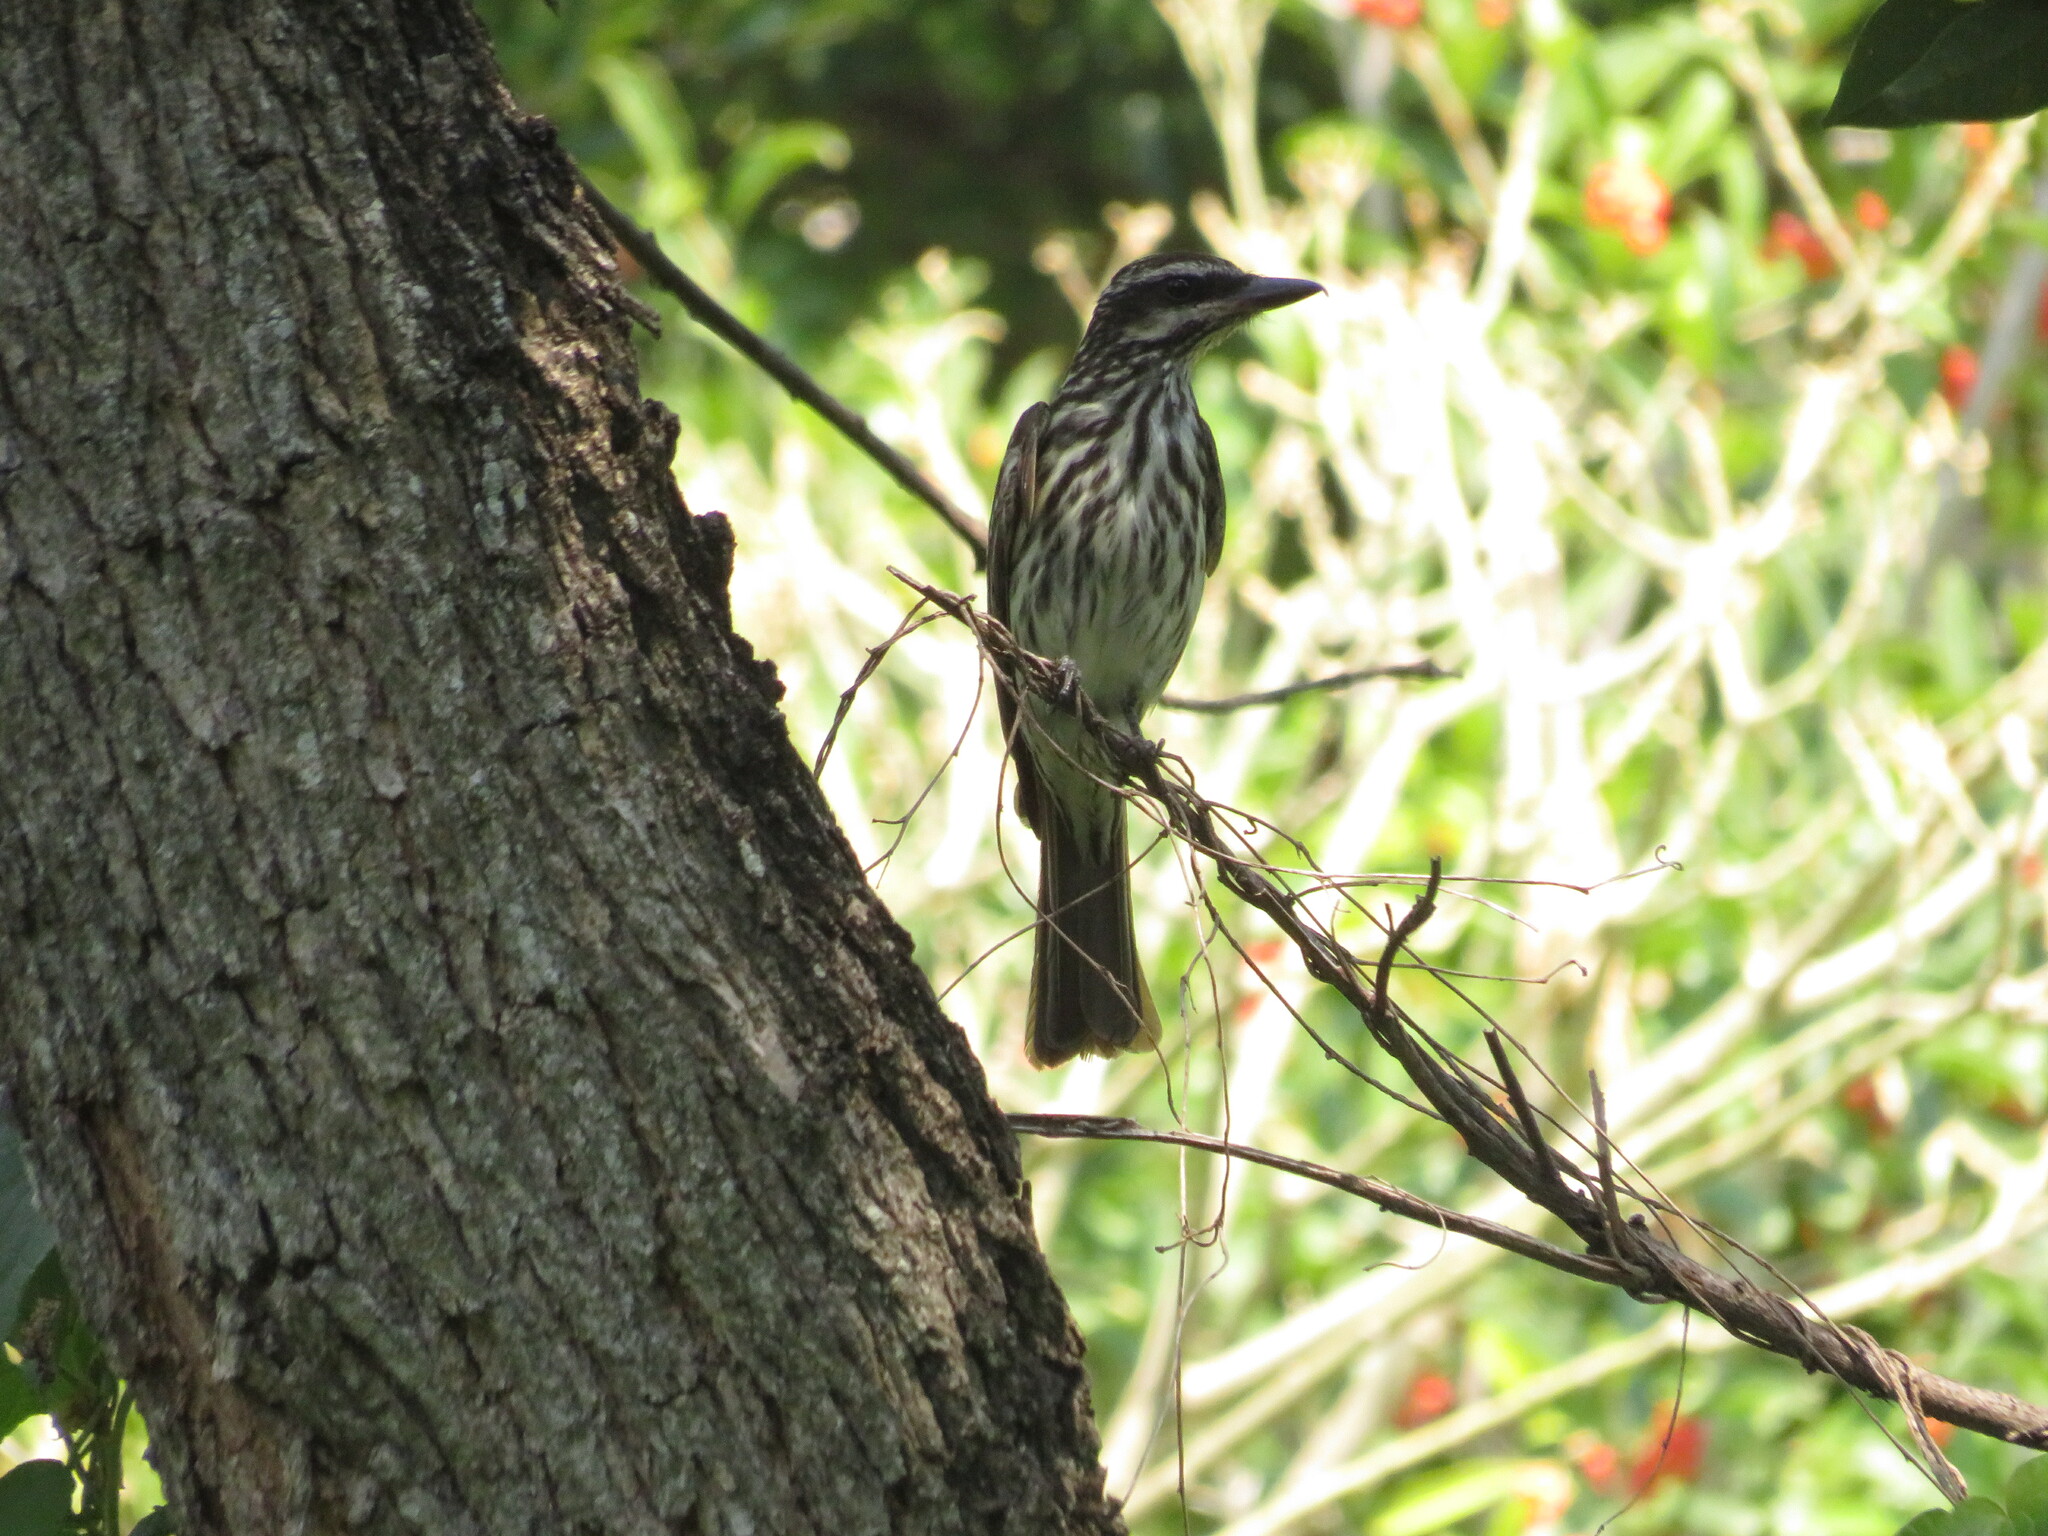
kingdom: Animalia
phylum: Chordata
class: Aves
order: Passeriformes
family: Tyrannidae
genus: Myiodynastes
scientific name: Myiodynastes maculatus
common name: Streaked flycatcher
